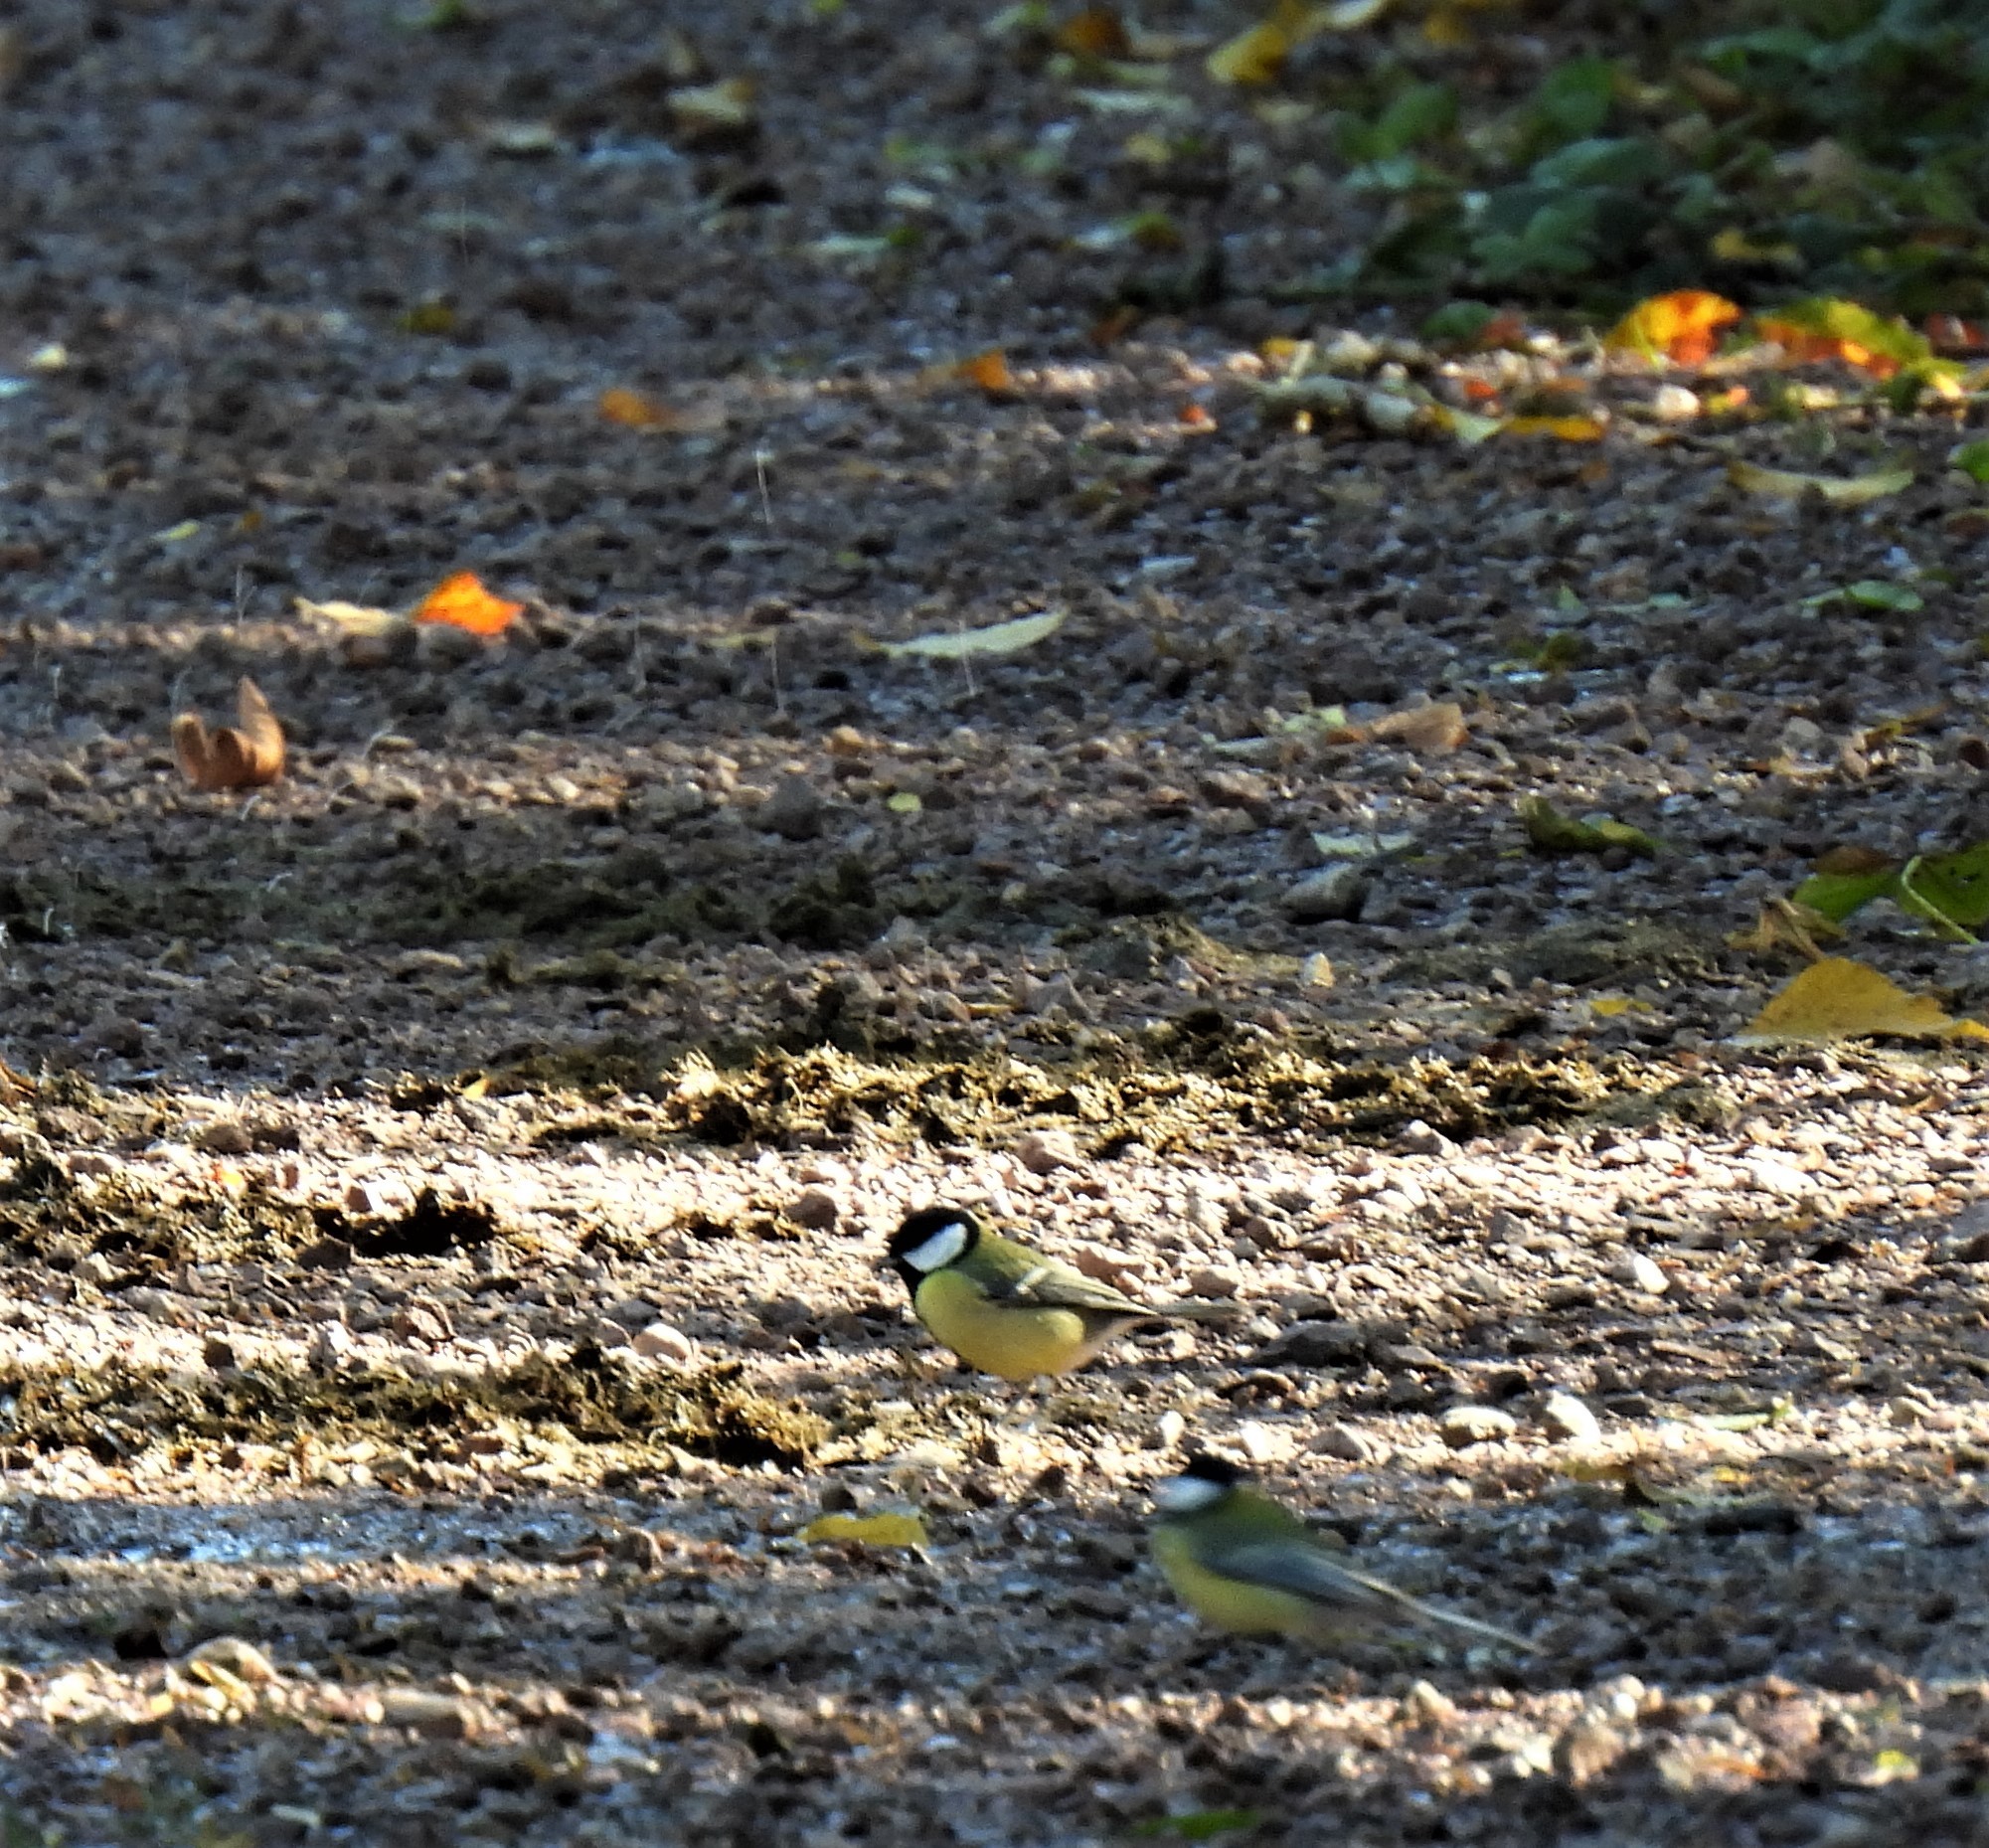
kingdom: Animalia
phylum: Chordata
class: Aves
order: Passeriformes
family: Paridae
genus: Parus
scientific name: Parus major
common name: Great tit
